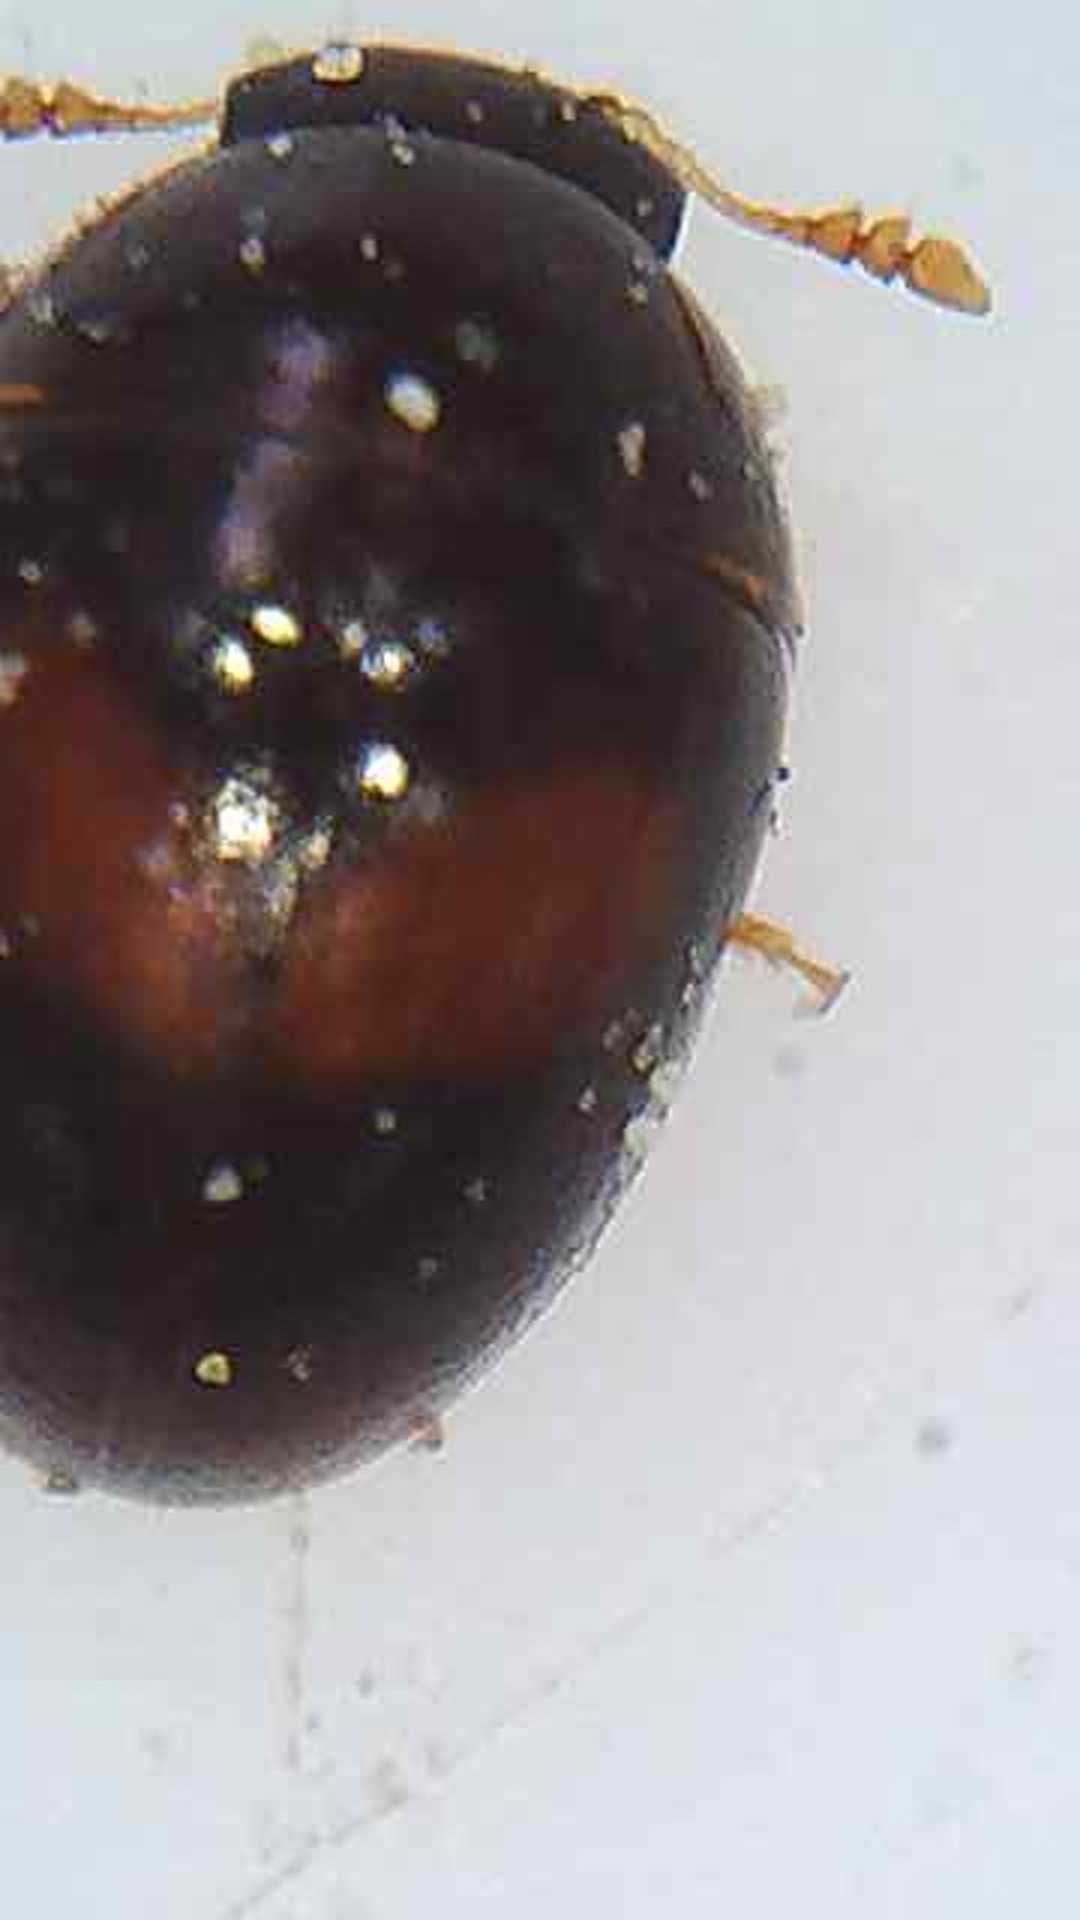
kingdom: Animalia
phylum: Arthropoda
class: Insecta
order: Coleoptera
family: Phalacridae
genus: Austroporus
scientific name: Austroporus
